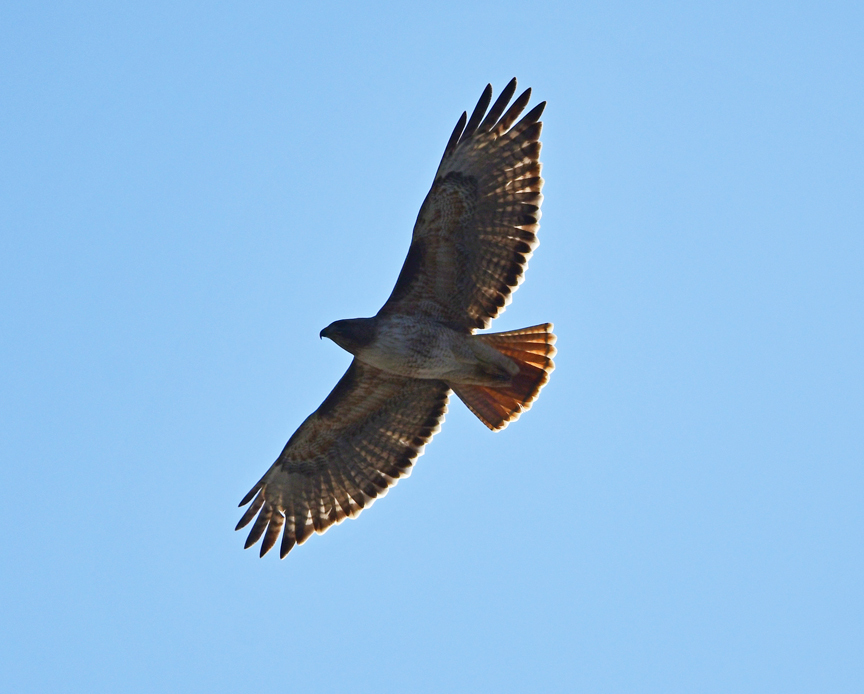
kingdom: Animalia
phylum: Chordata
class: Aves
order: Accipitriformes
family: Accipitridae
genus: Buteo
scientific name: Buteo jamaicensis
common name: Red-tailed hawk
